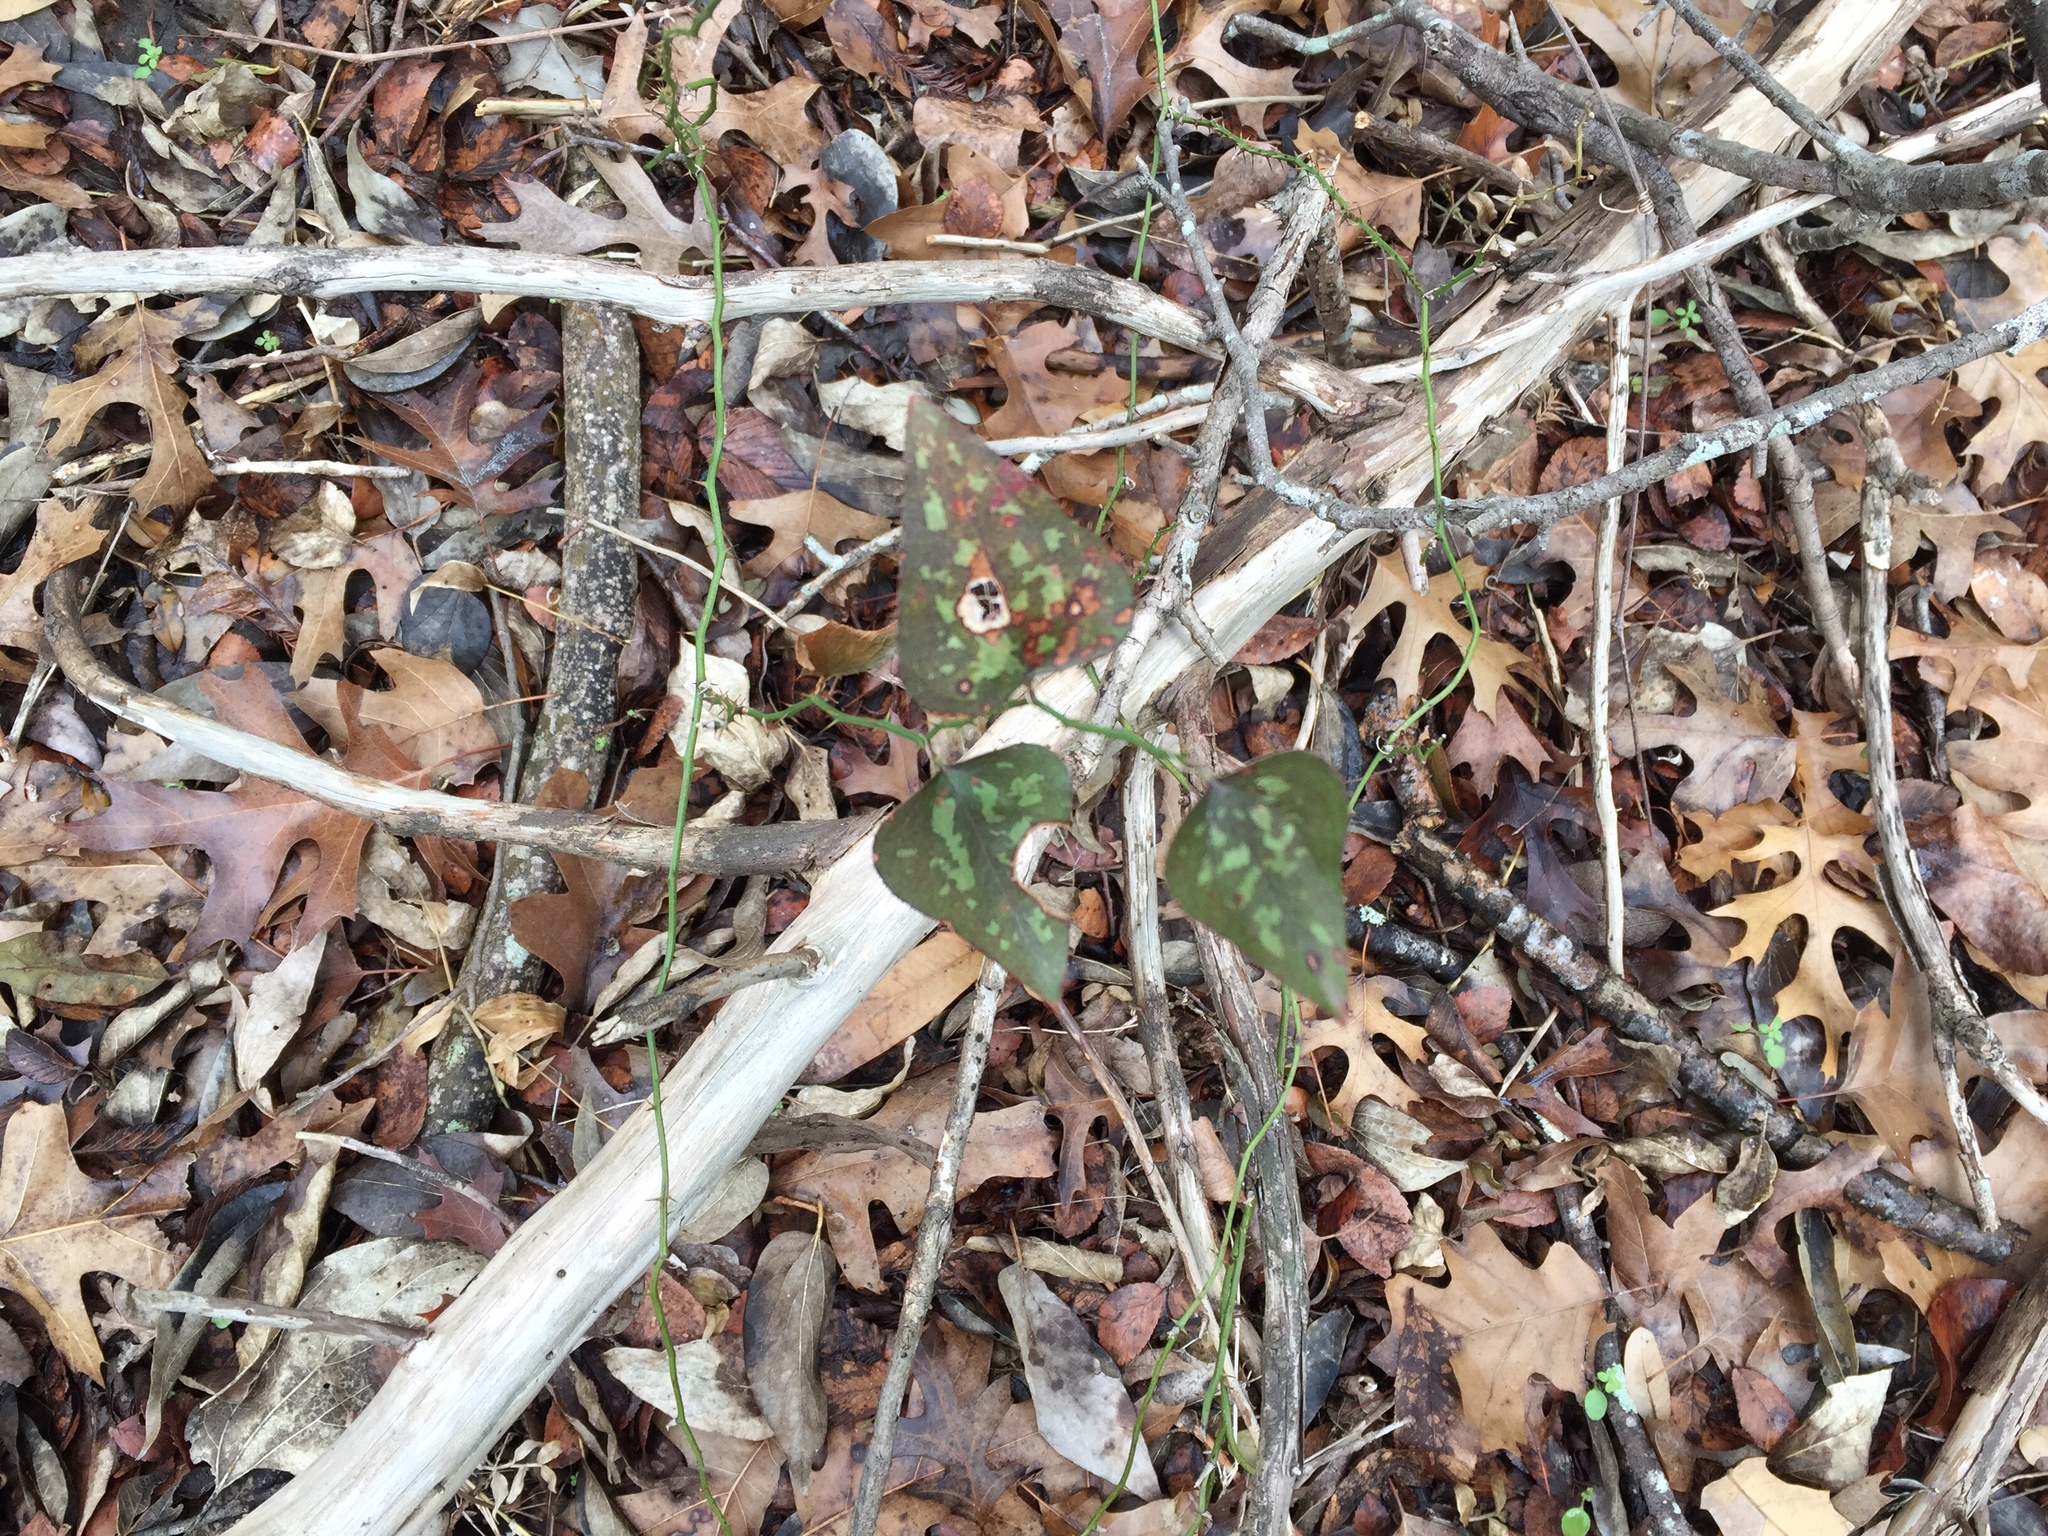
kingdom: Plantae
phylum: Tracheophyta
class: Liliopsida
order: Liliales
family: Smilacaceae
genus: Smilax
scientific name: Smilax bona-nox
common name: Catbrier
